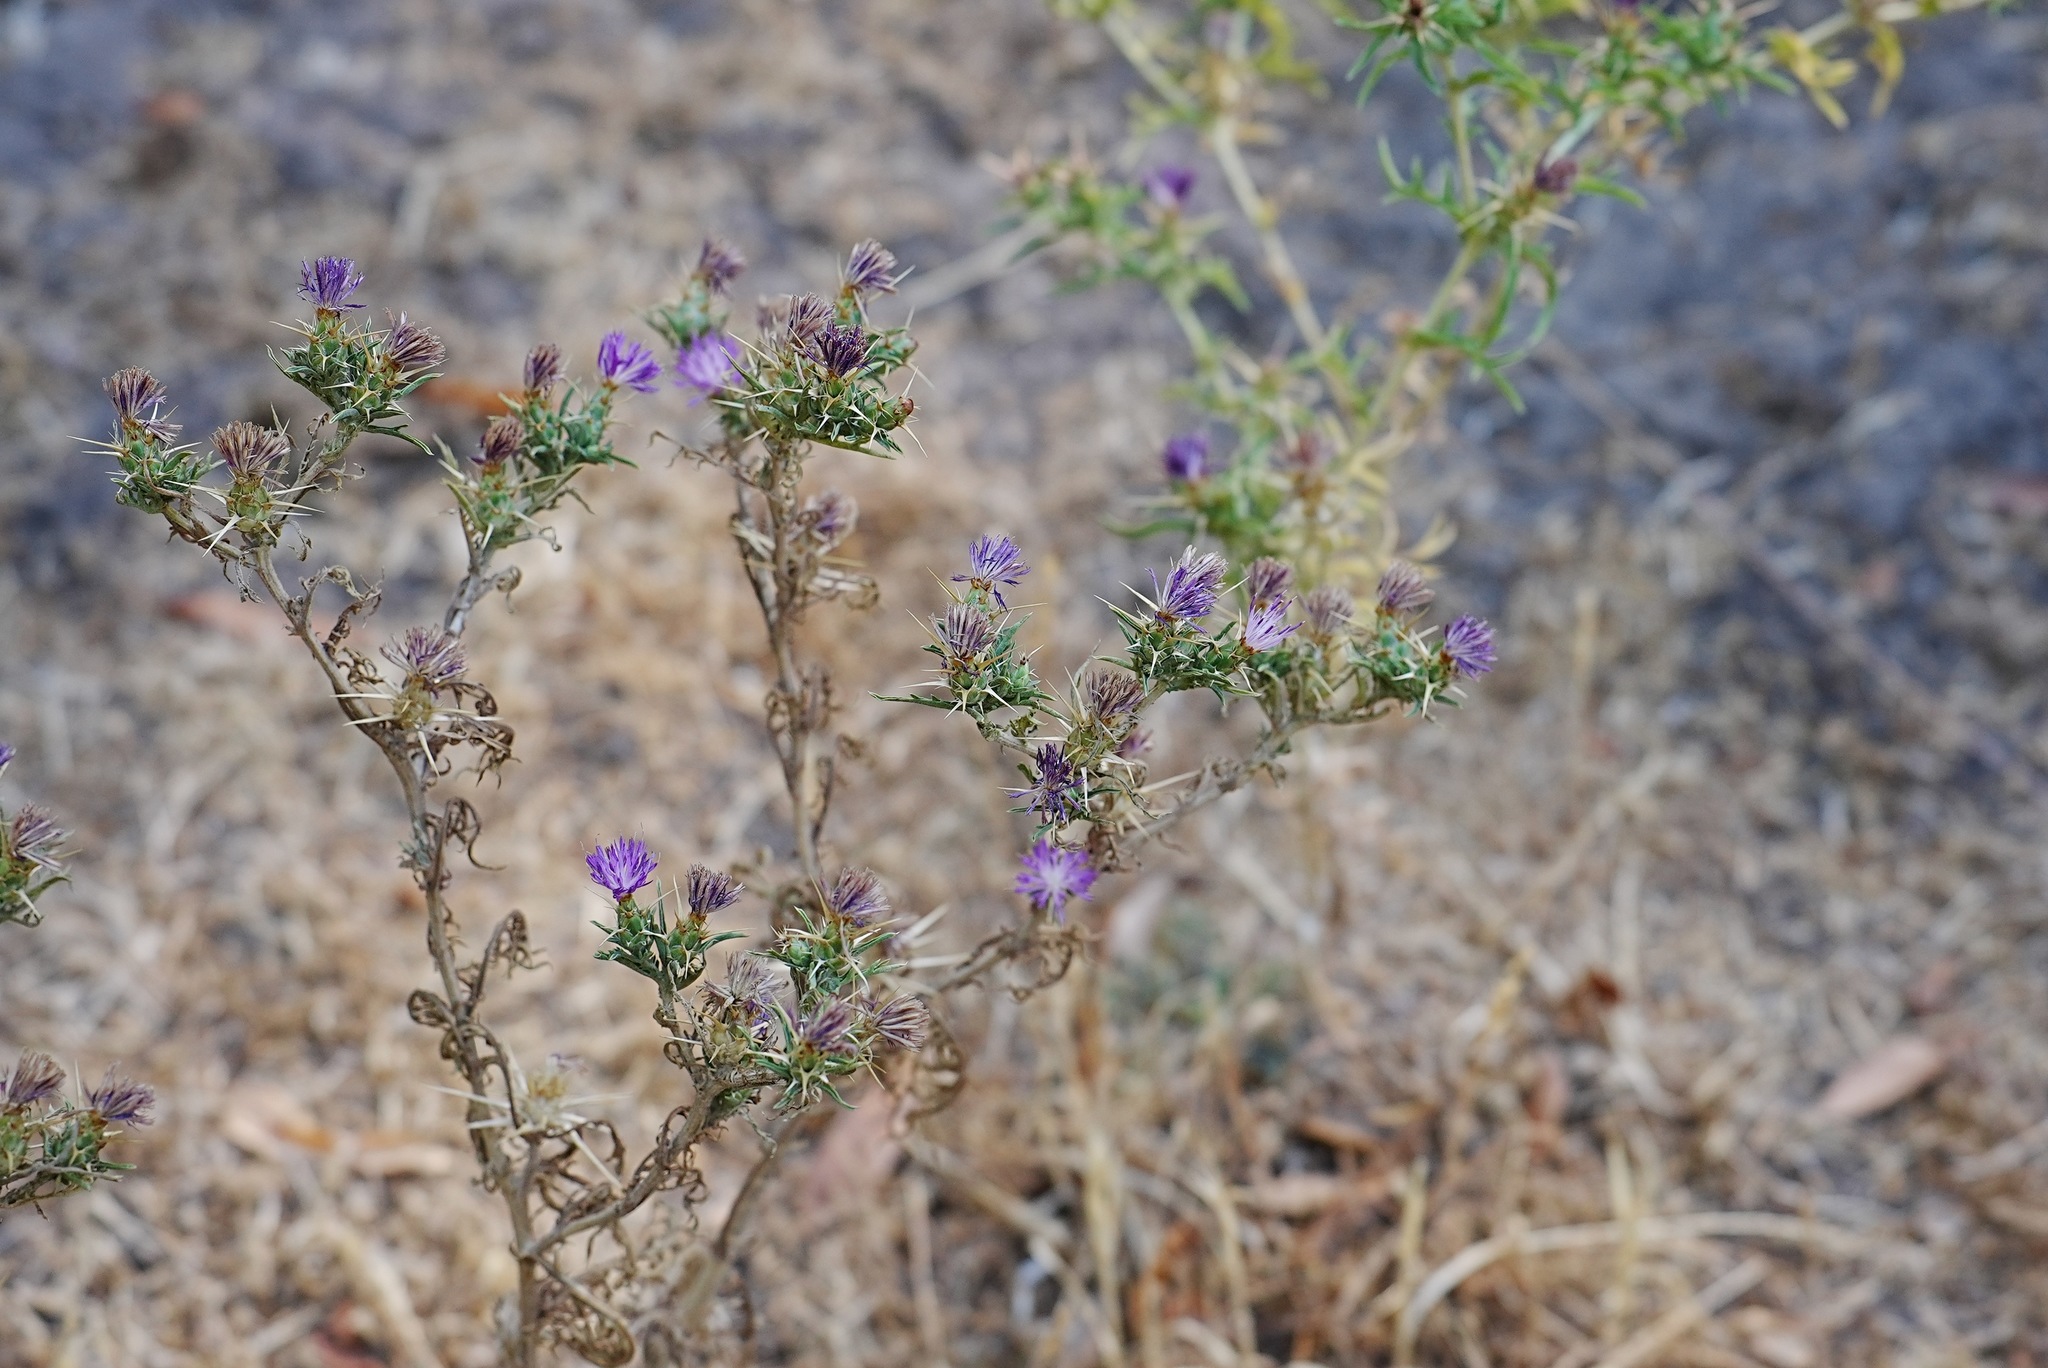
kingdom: Plantae
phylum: Tracheophyta
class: Magnoliopsida
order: Asterales
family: Asteraceae
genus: Centaurea
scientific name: Centaurea calcitrapa
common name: Red star-thistle
